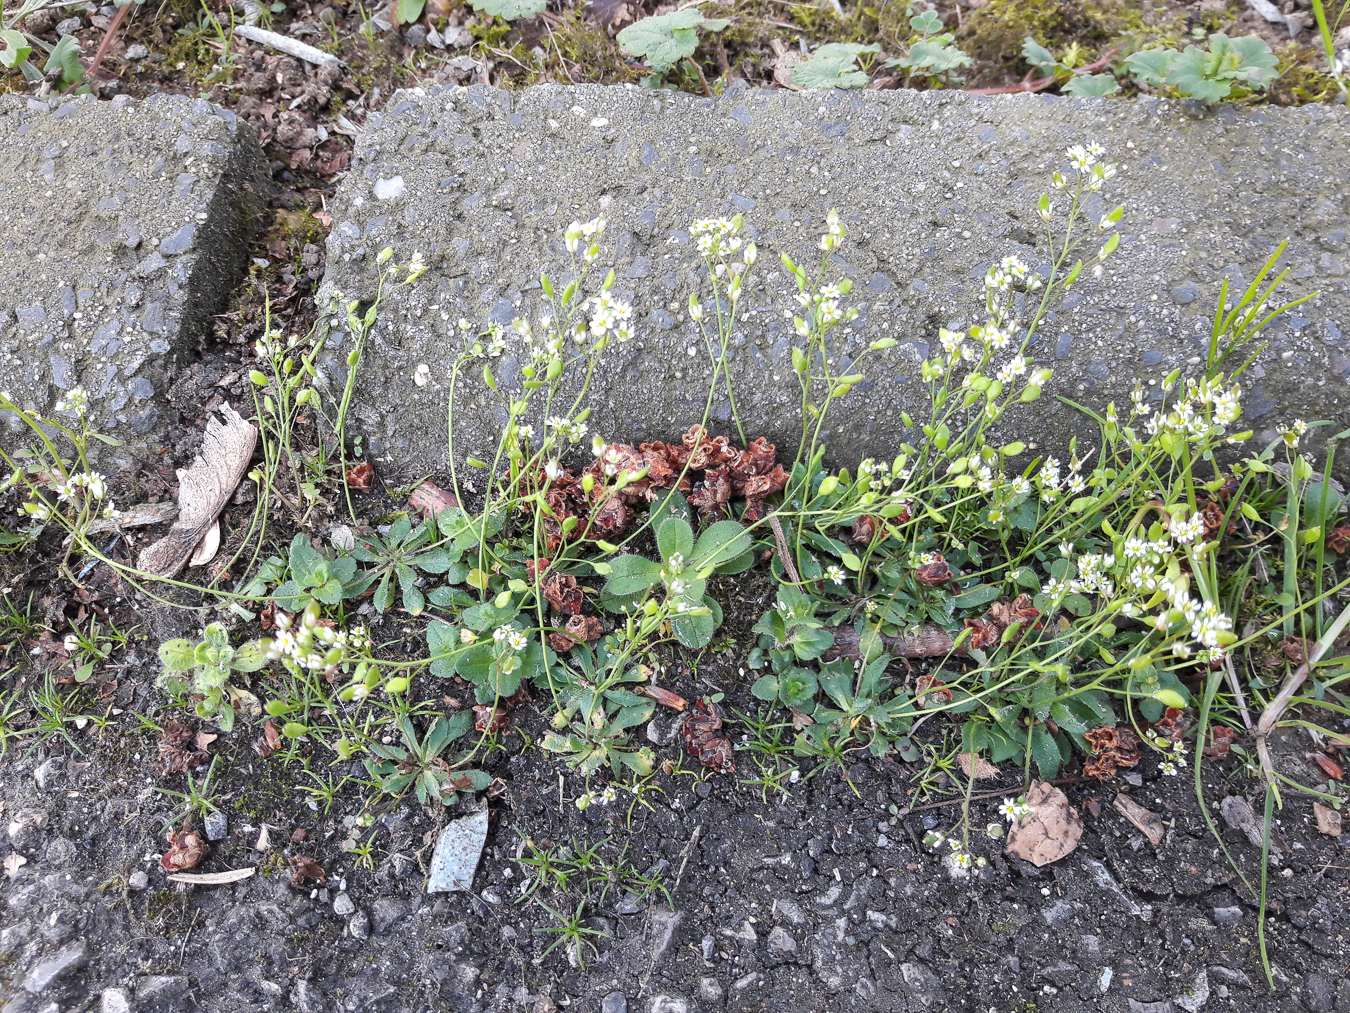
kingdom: Plantae
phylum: Tracheophyta
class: Magnoliopsida
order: Brassicales
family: Brassicaceae
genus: Draba
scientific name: Draba verna
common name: Spring draba
